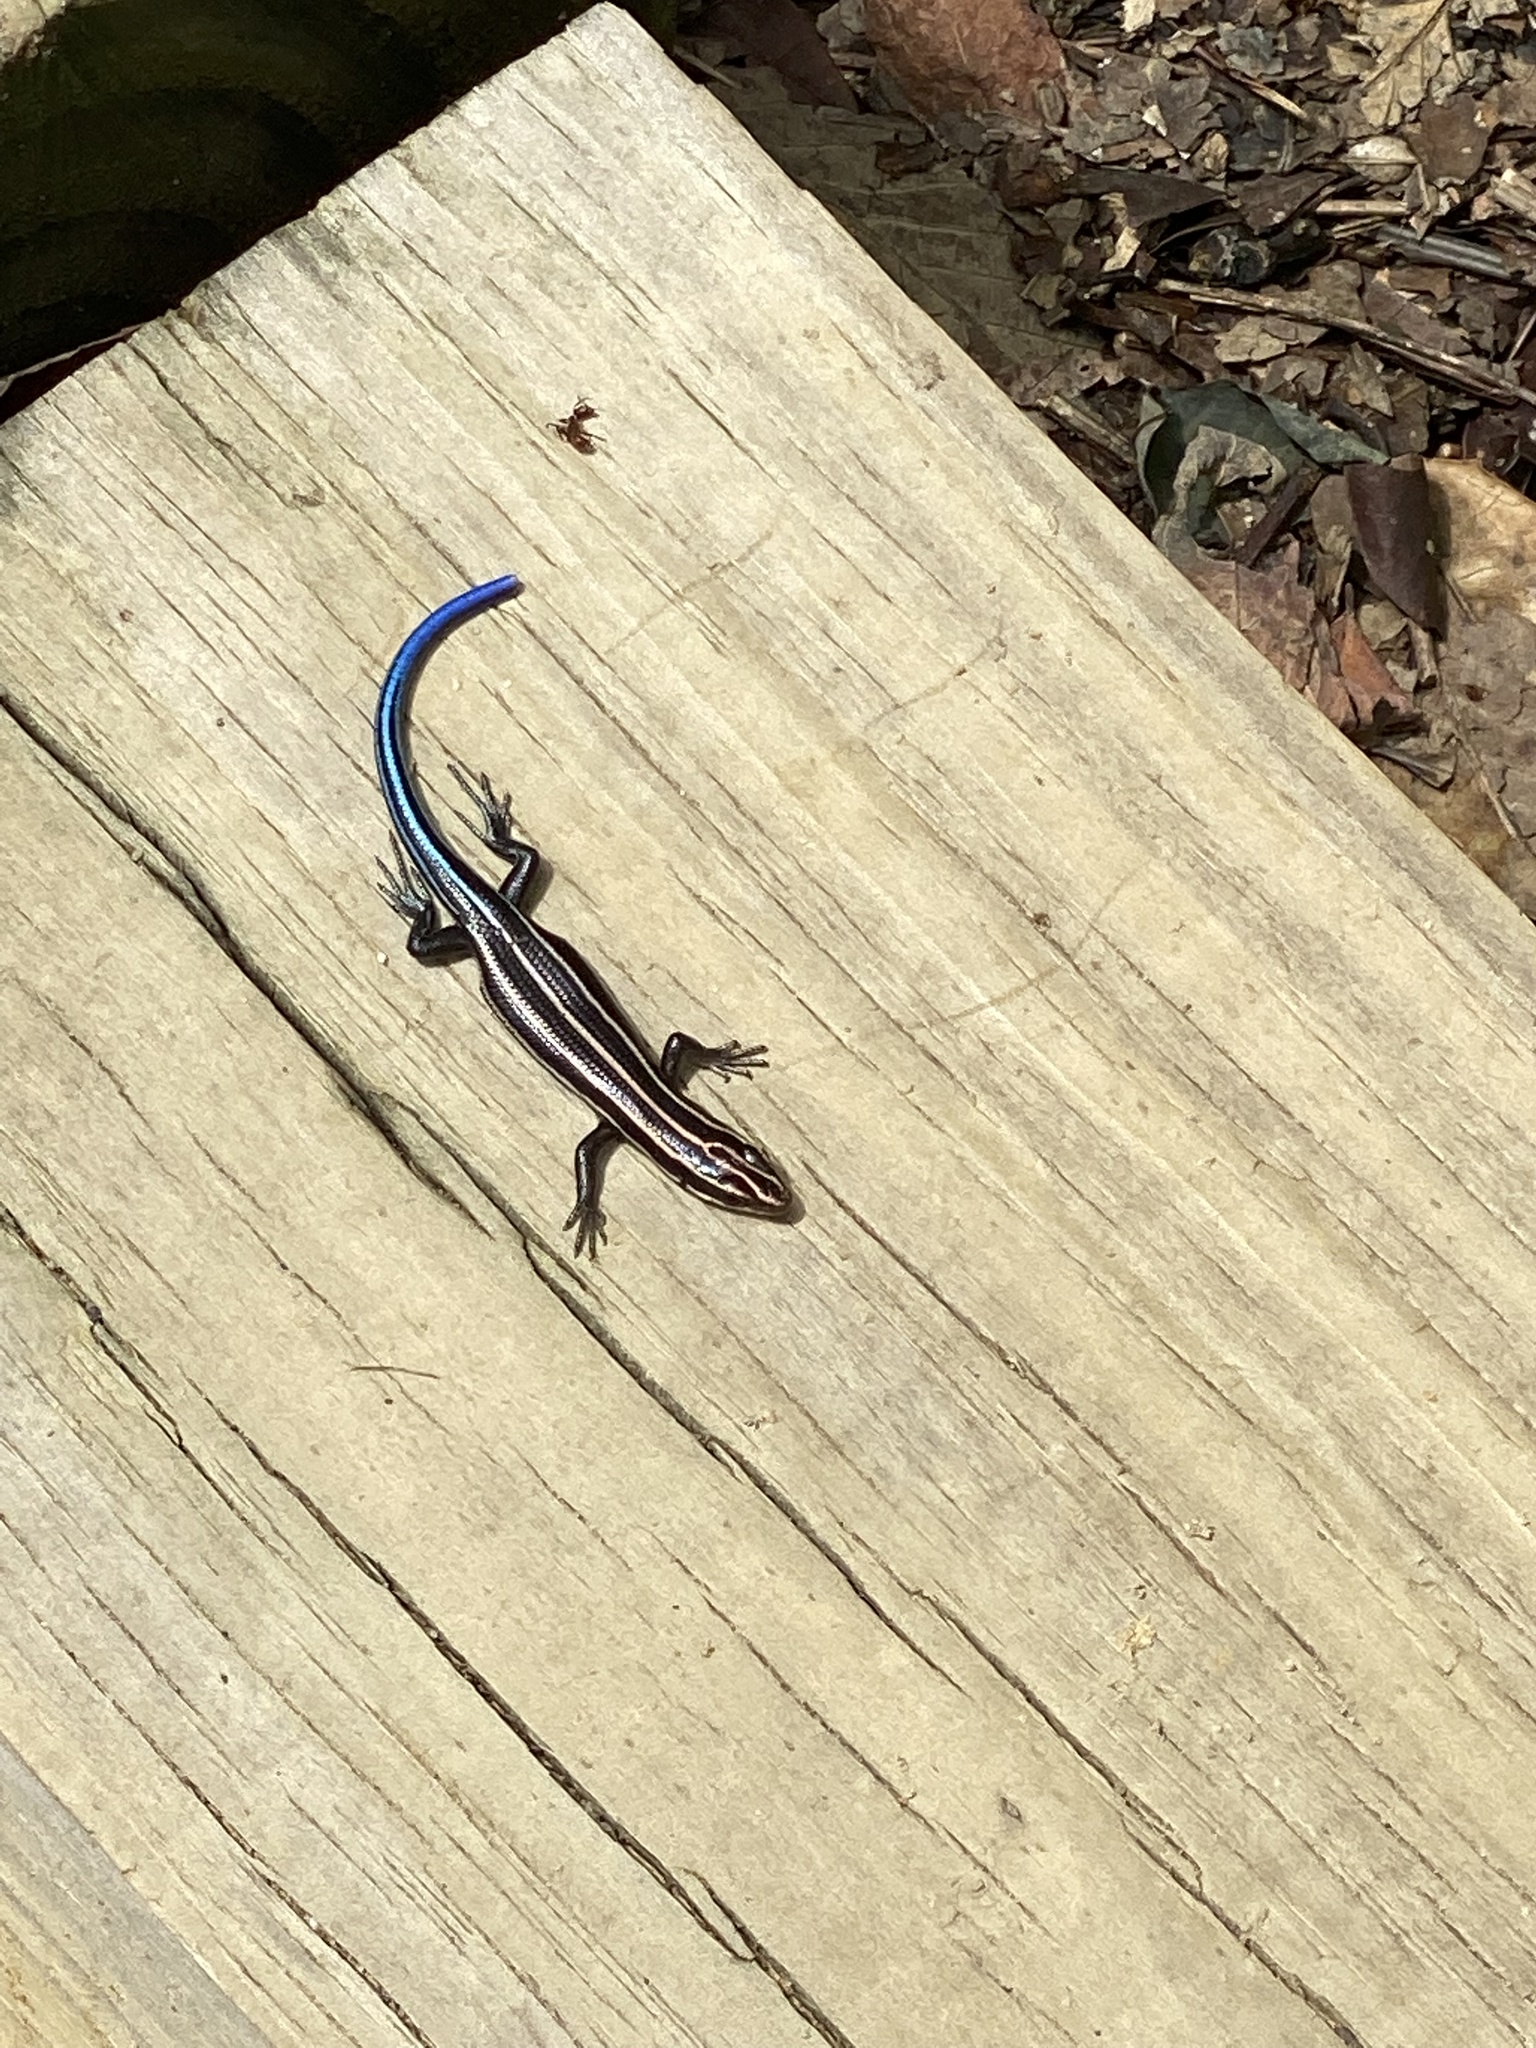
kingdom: Animalia
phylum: Chordata
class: Squamata
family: Scincidae
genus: Plestiodon
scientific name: Plestiodon fasciatus
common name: Five-lined skink
